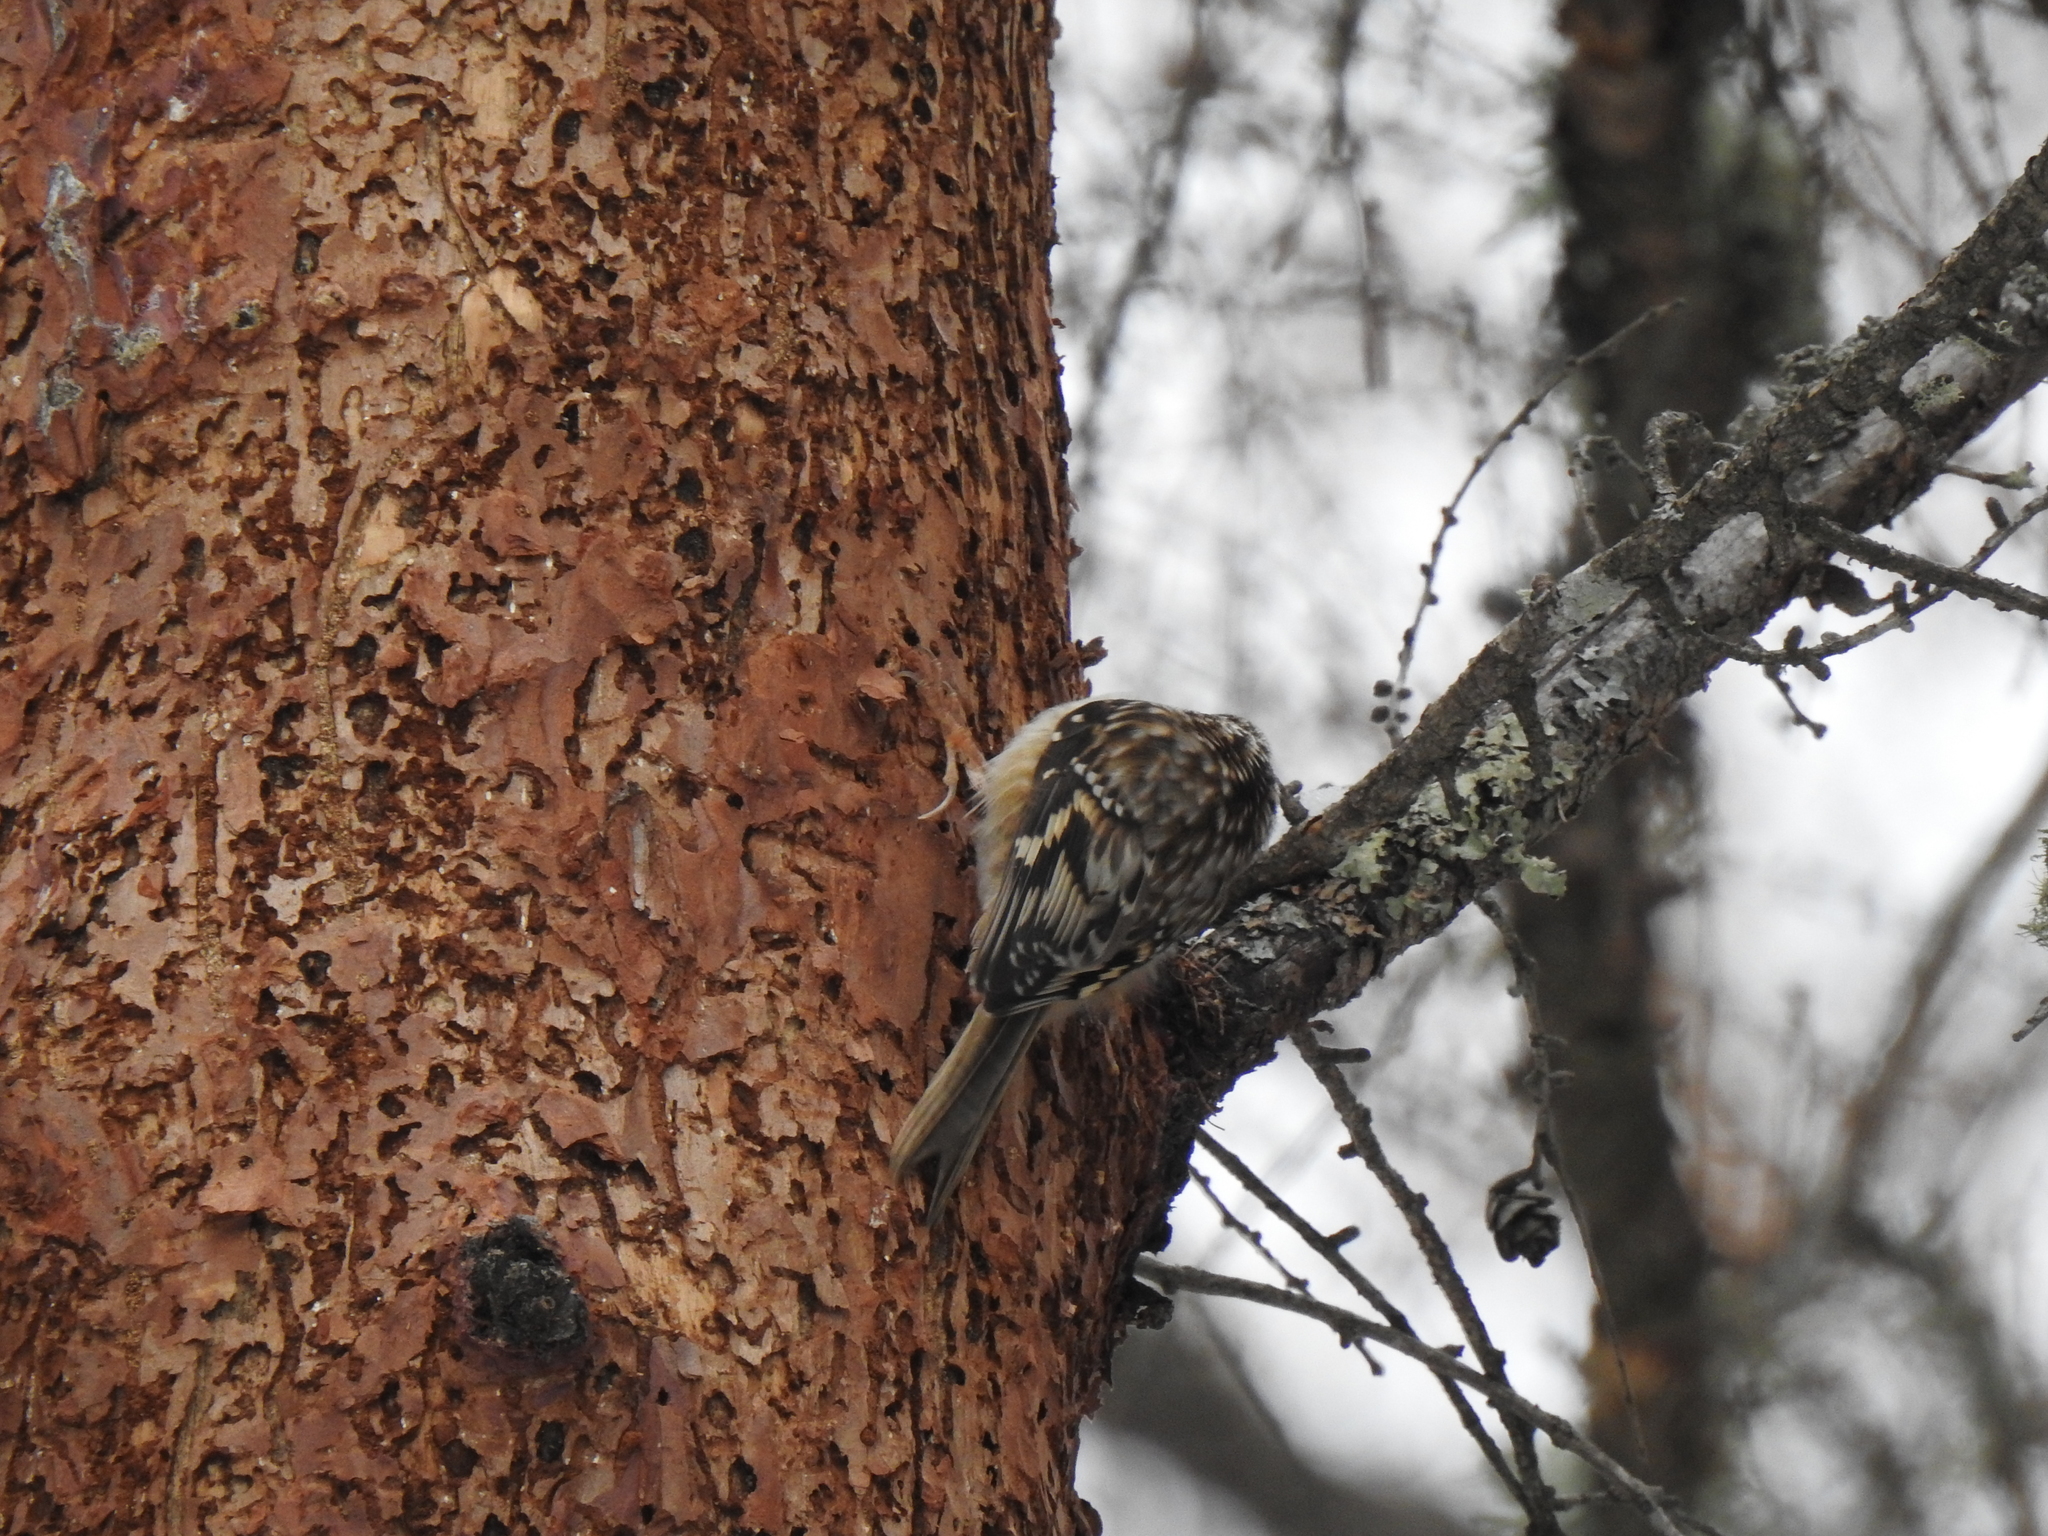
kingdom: Animalia
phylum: Chordata
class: Aves
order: Passeriformes
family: Certhiidae
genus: Certhia
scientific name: Certhia americana
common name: Brown creeper
